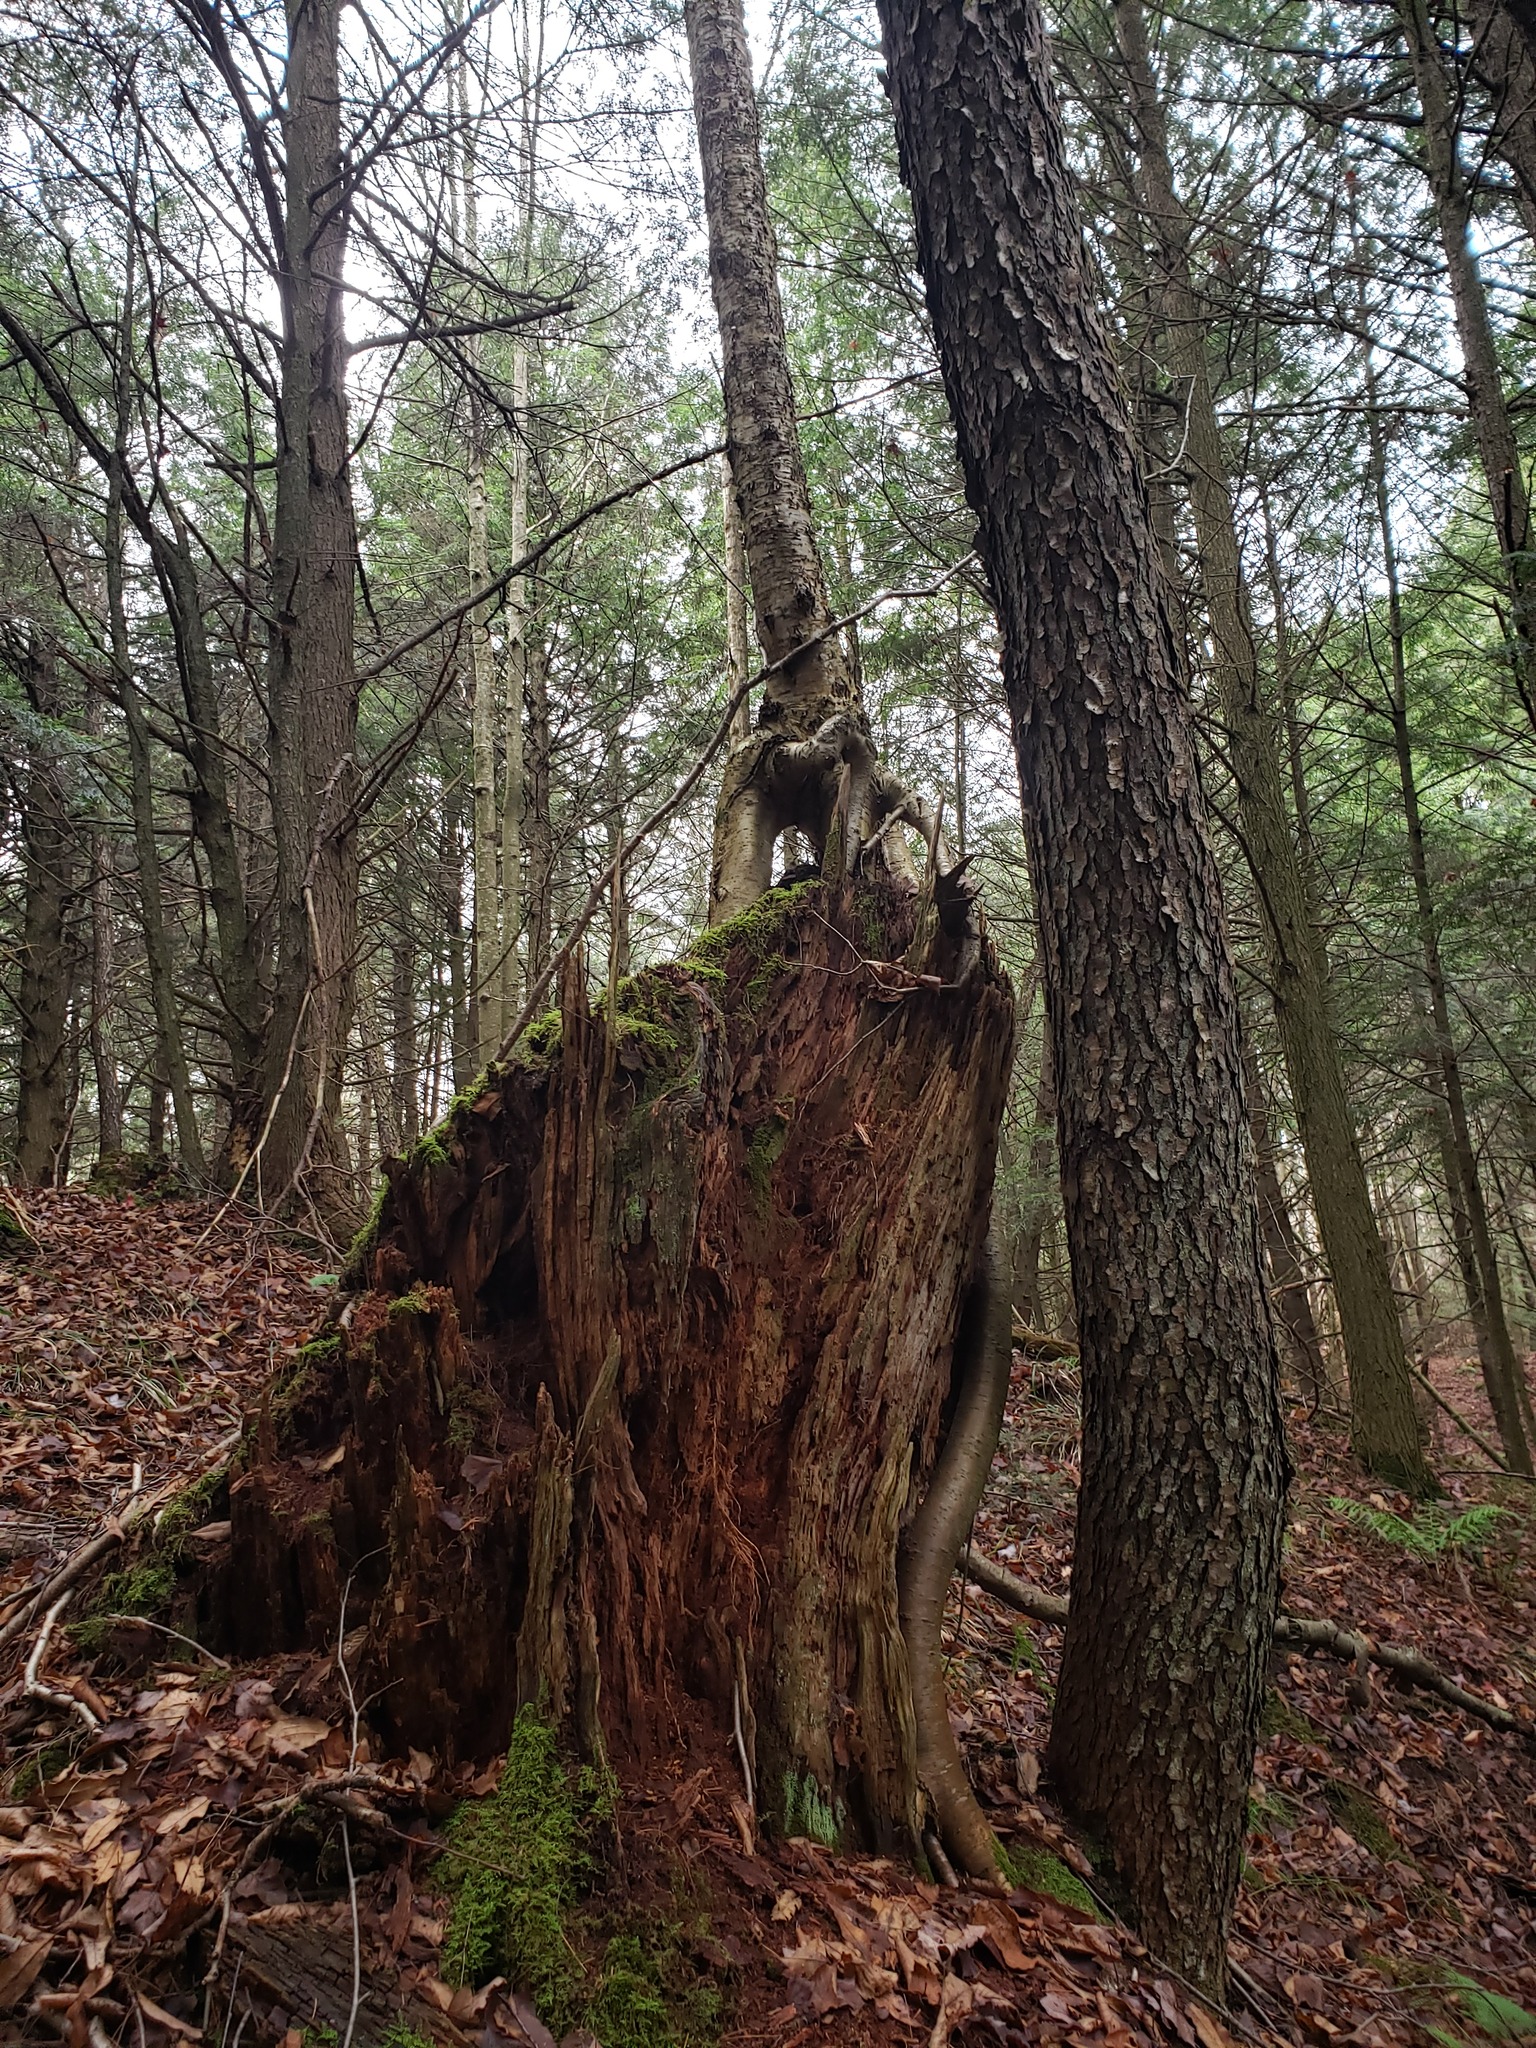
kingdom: Plantae
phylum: Tracheophyta
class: Magnoliopsida
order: Fagales
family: Betulaceae
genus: Betula
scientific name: Betula alleghaniensis
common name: Yellow birch
